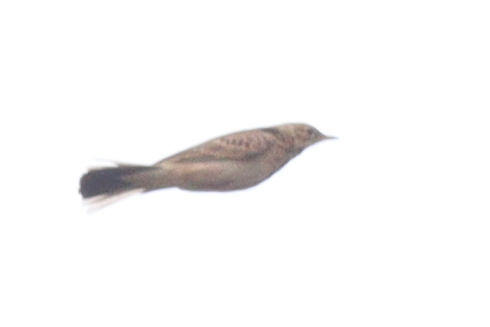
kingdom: Animalia
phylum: Chordata
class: Aves
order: Passeriformes
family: Motacillidae
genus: Anthus
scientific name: Anthus cinnamomeus
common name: African pipit
